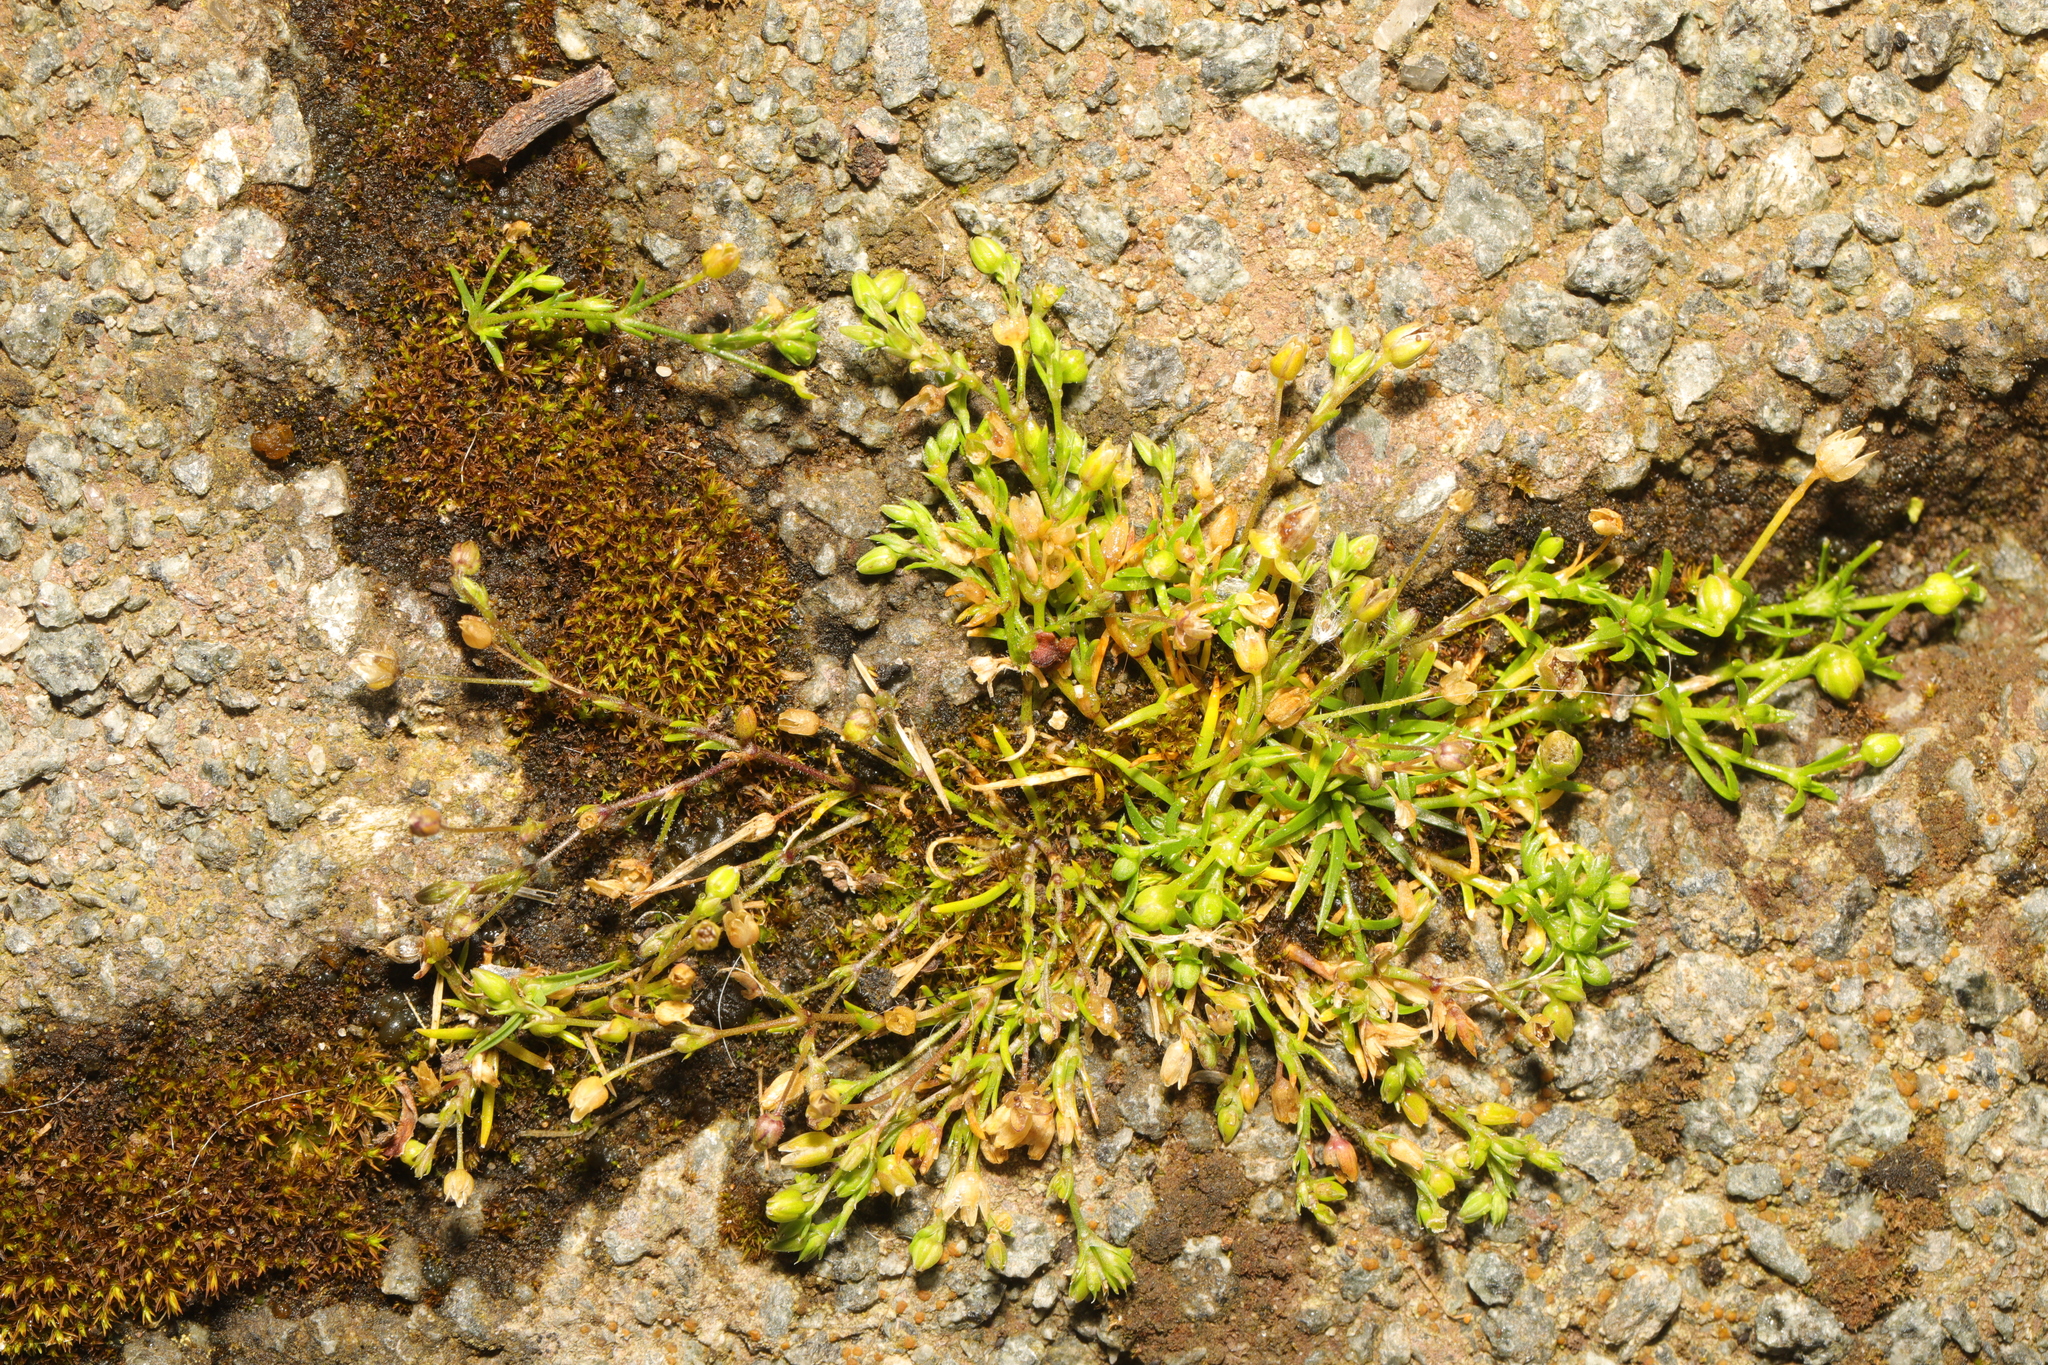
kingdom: Plantae
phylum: Tracheophyta
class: Magnoliopsida
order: Caryophyllales
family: Caryophyllaceae
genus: Sagina
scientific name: Sagina procumbens
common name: Procumbent pearlwort
